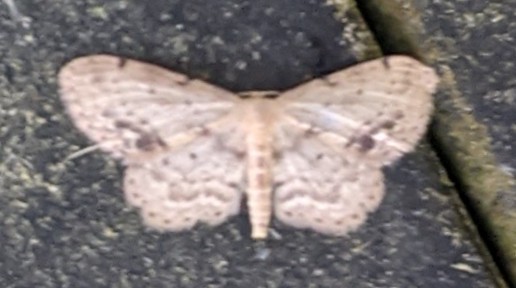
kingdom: Animalia
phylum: Arthropoda
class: Insecta
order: Lepidoptera
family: Geometridae
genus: Idaea
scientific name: Idaea dimidiata
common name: Single-dotted wave
